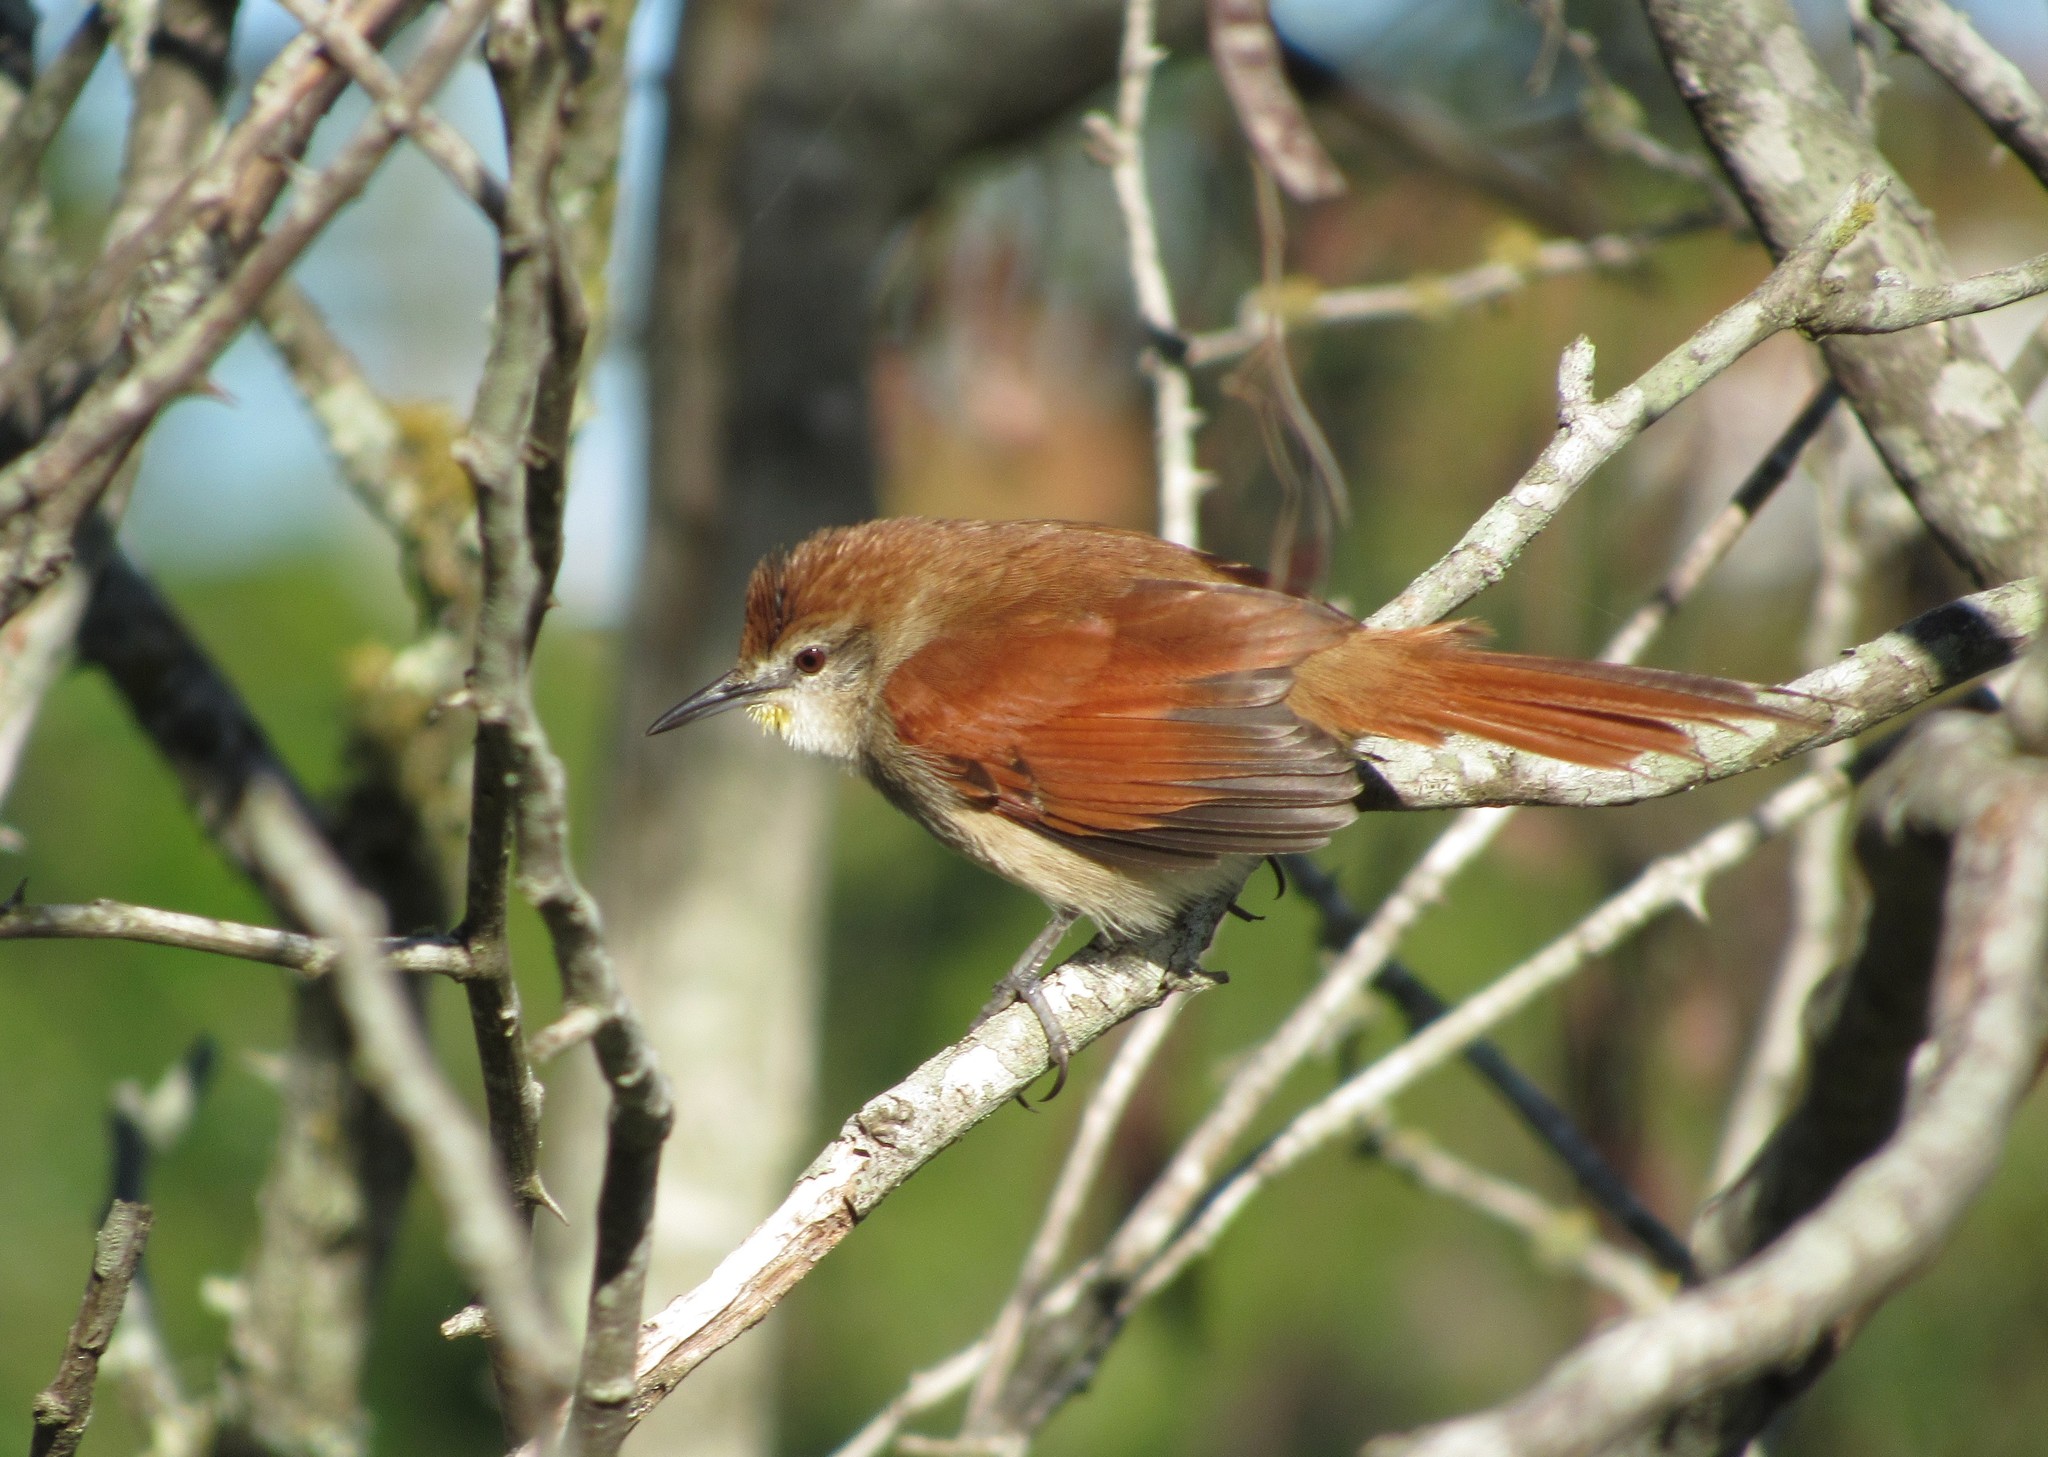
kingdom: Animalia
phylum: Chordata
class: Aves
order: Passeriformes
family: Furnariidae
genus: Certhiaxis
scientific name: Certhiaxis cinnamomeus
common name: Yellow-chinned spinetail
